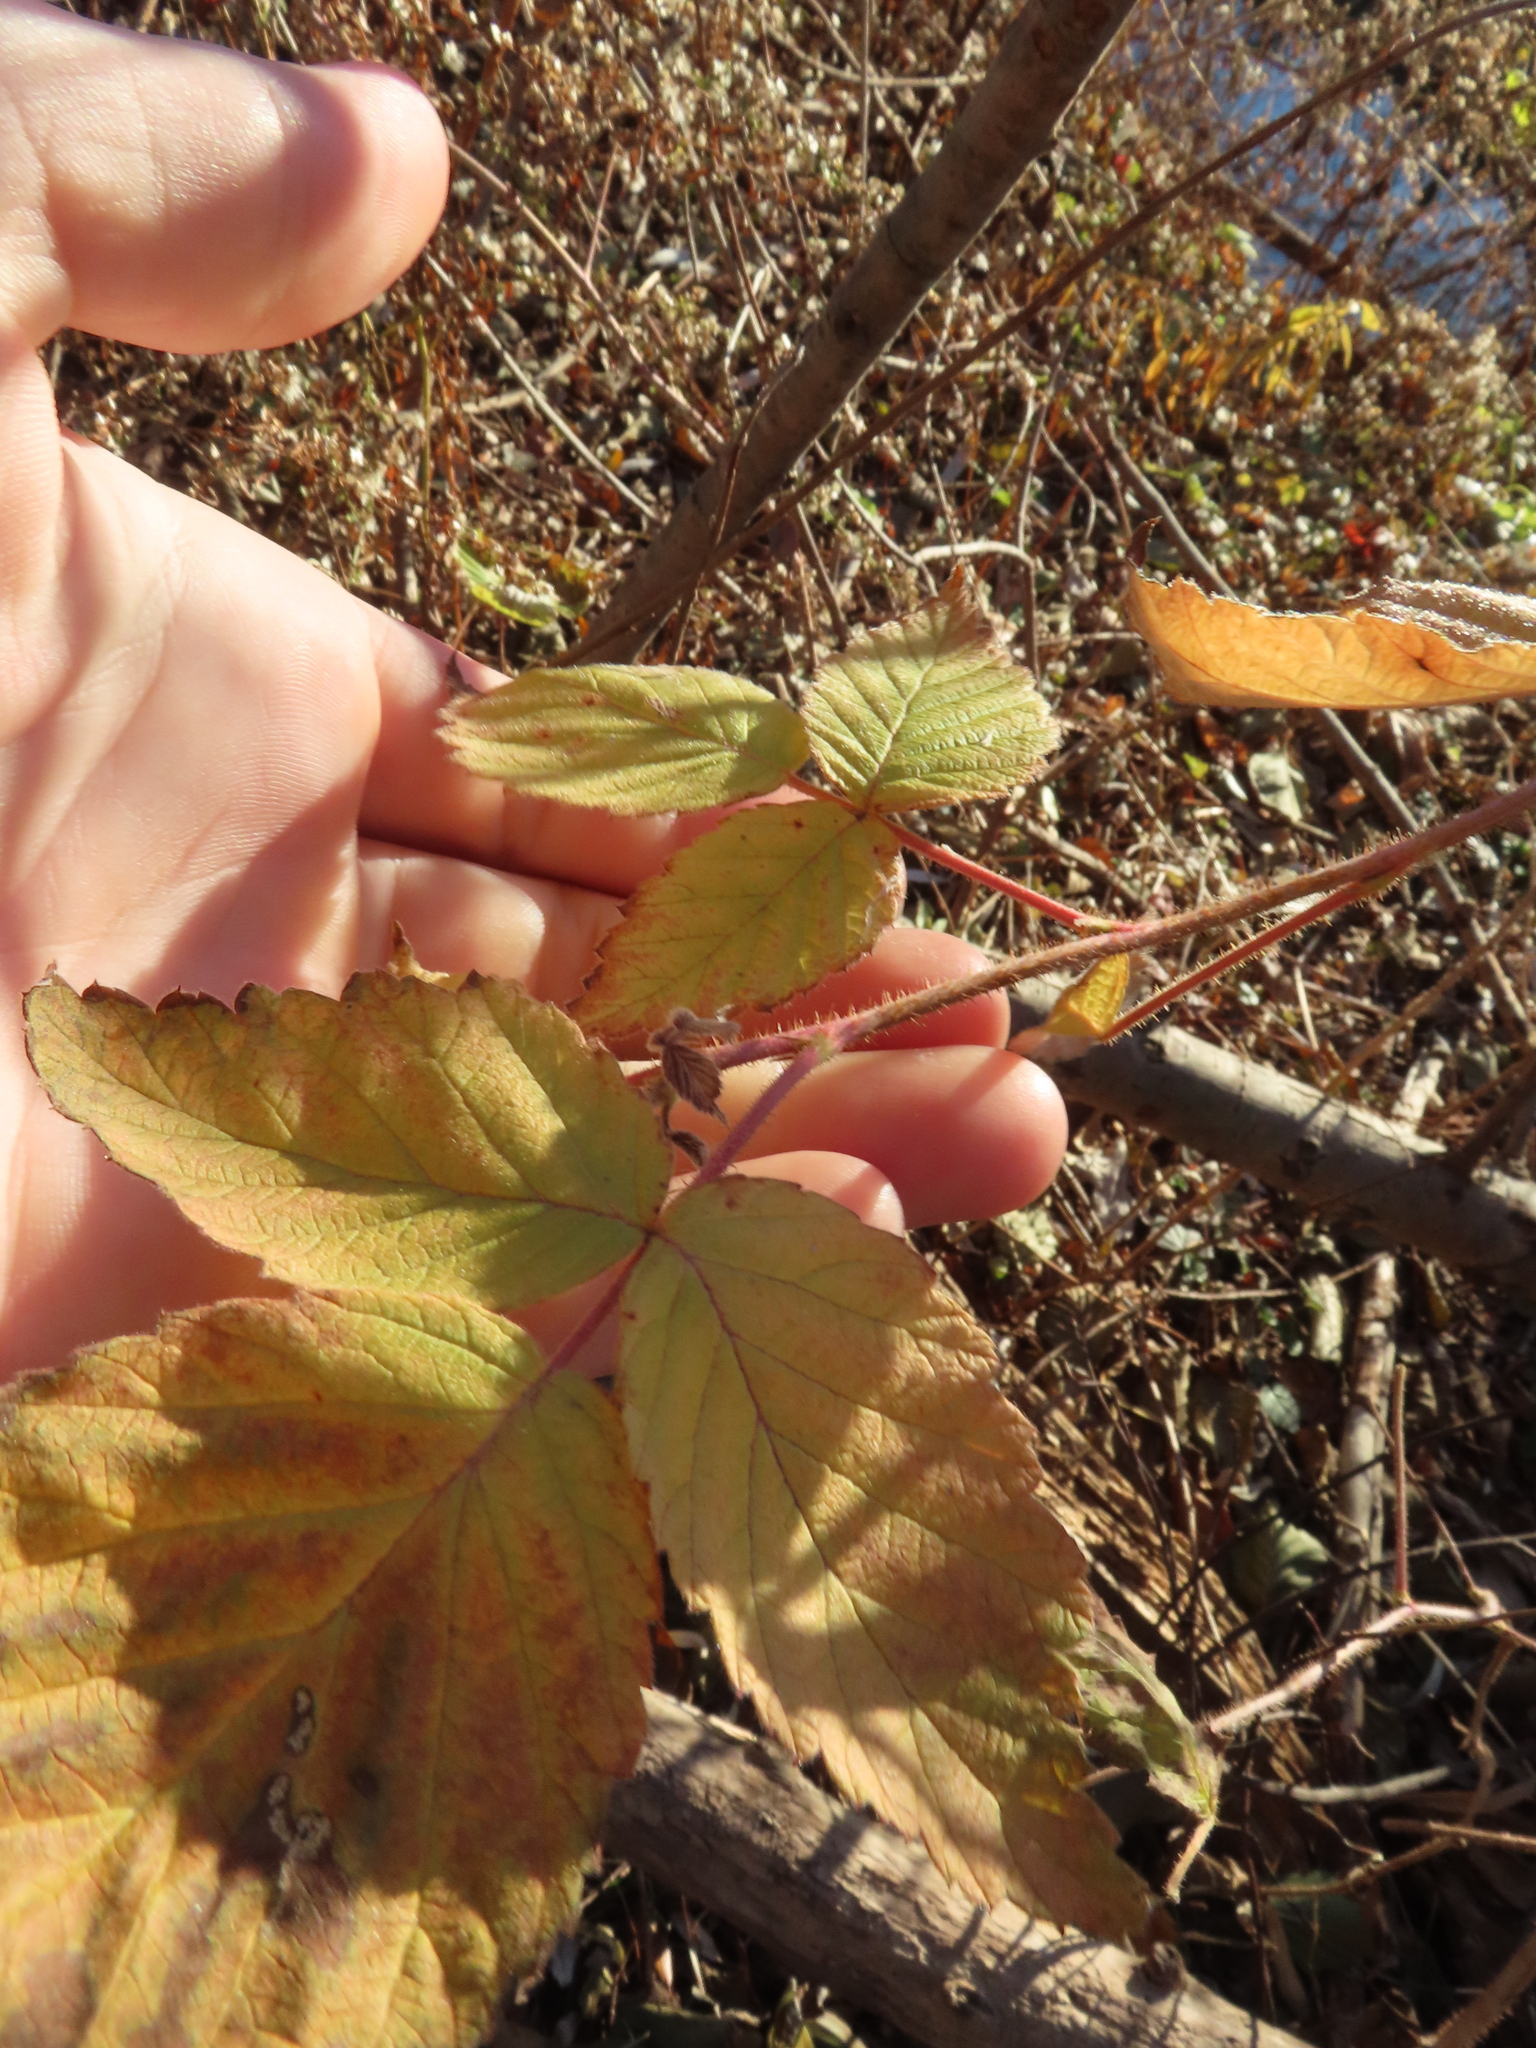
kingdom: Plantae
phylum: Tracheophyta
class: Magnoliopsida
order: Rosales
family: Rosaceae
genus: Rubus
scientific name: Rubus idaeus
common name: Raspberry
